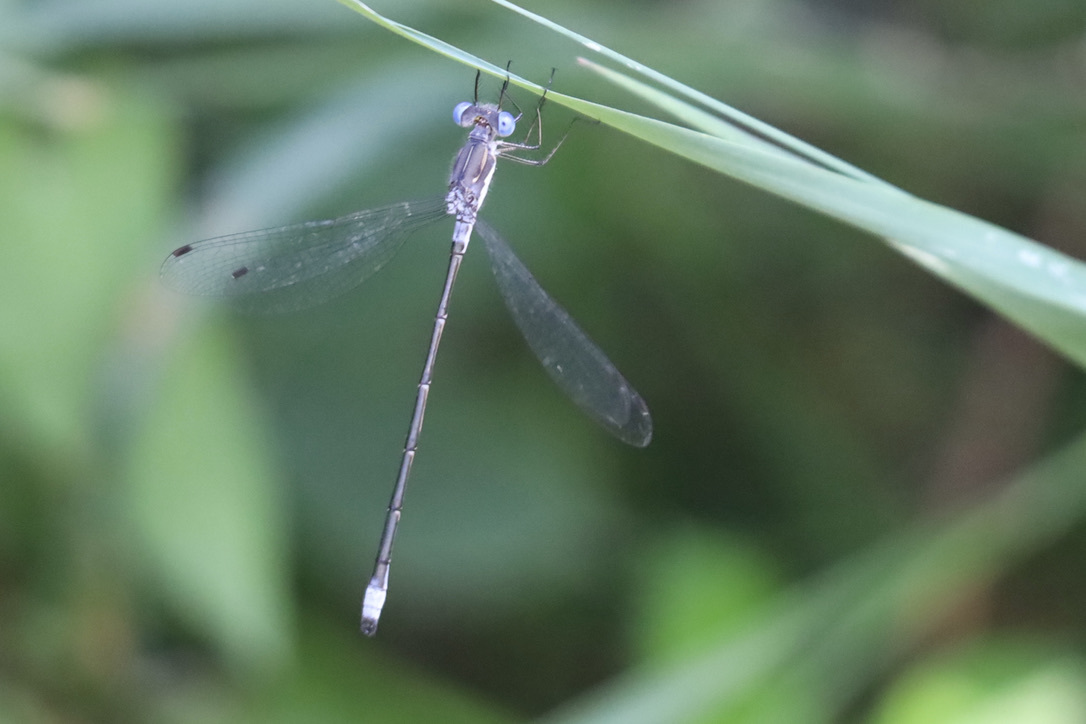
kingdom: Animalia
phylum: Arthropoda
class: Insecta
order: Odonata
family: Lestidae
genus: Lestes
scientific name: Lestes congener
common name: Spotted spreadwing
